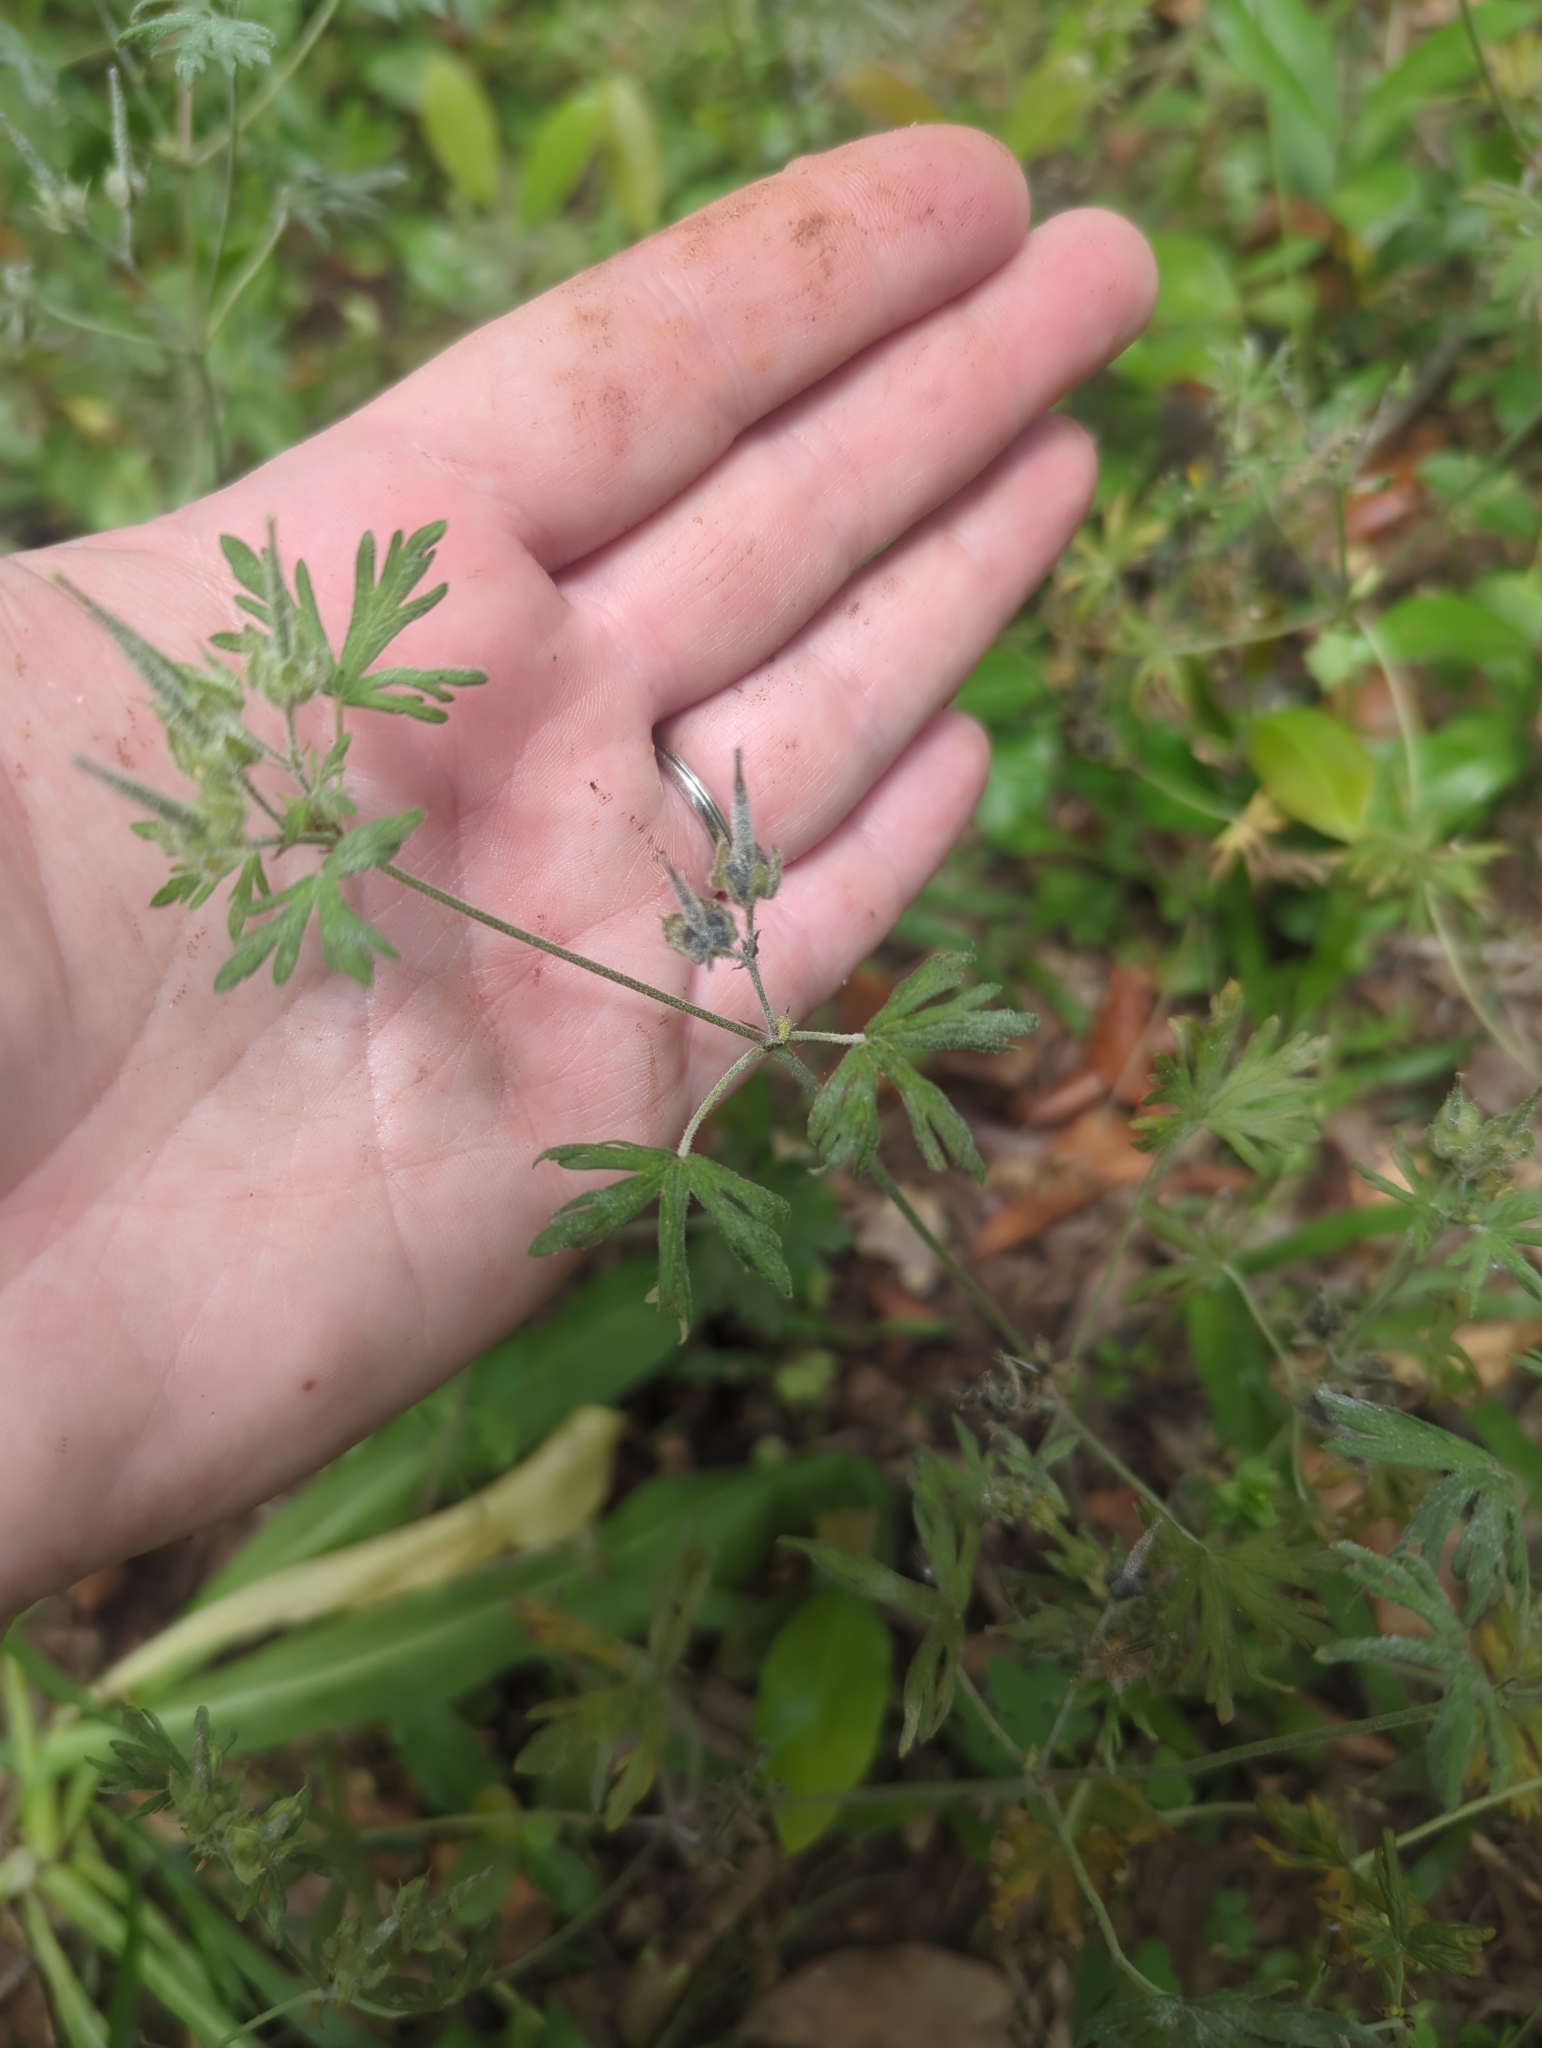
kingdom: Plantae
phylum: Tracheophyta
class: Magnoliopsida
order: Geraniales
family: Geraniaceae
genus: Geranium
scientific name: Geranium carolinianum
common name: Carolina crane's-bill
